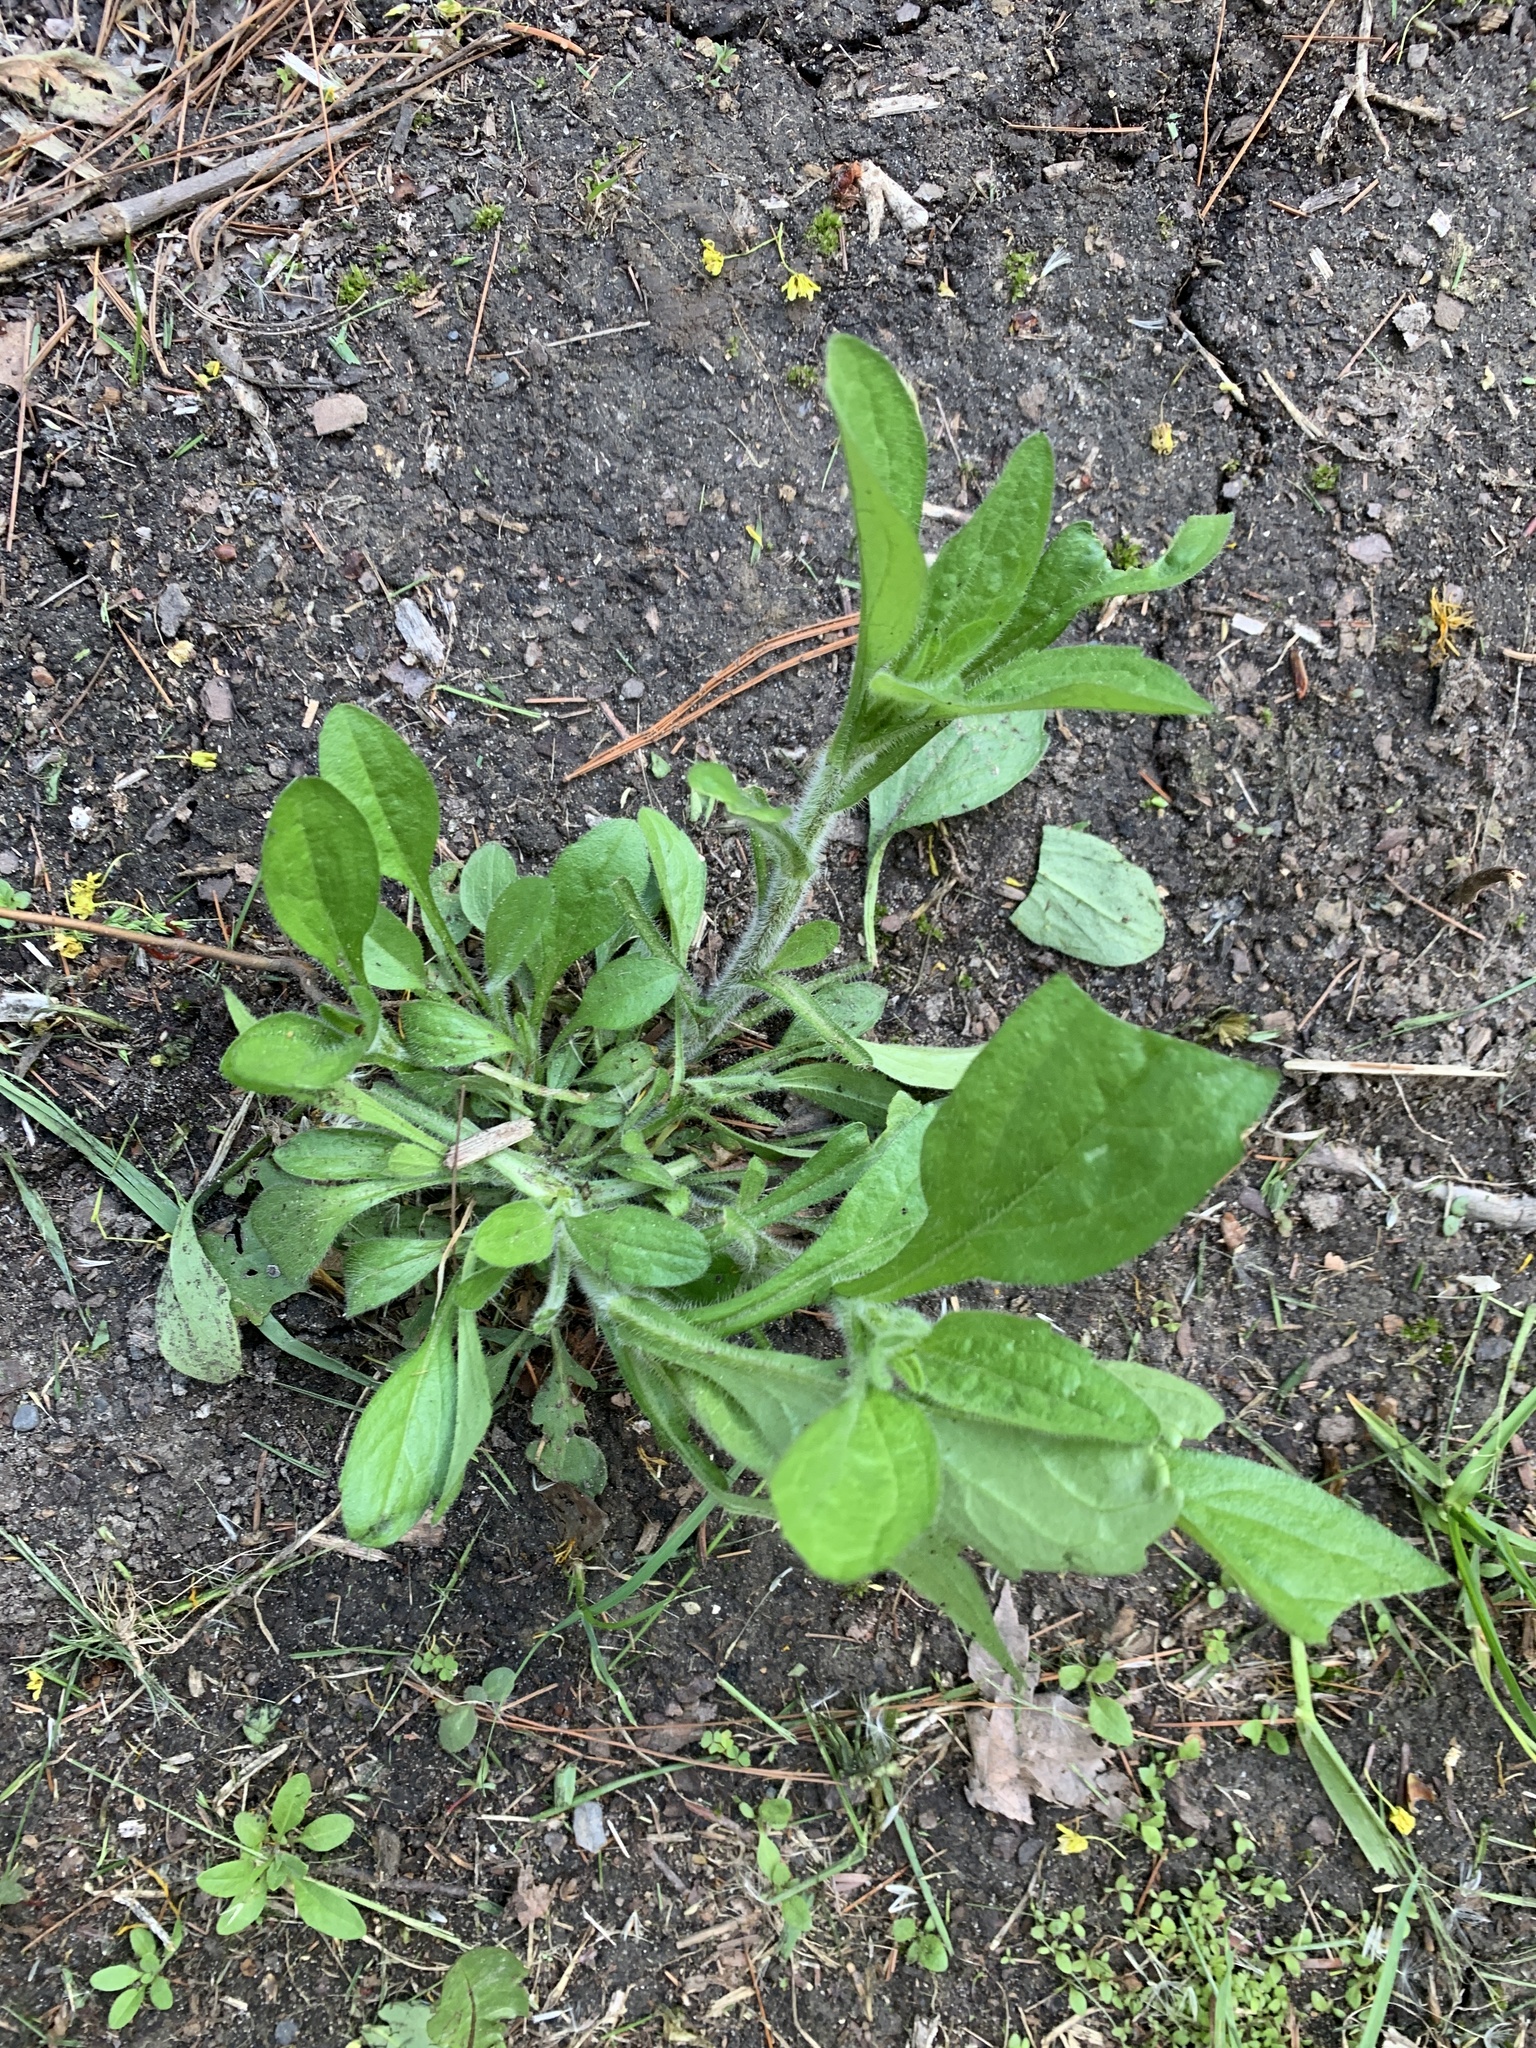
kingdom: Plantae
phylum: Tracheophyta
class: Magnoliopsida
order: Asterales
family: Asteraceae
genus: Erigeron
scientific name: Erigeron annuus
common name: Tall fleabane
